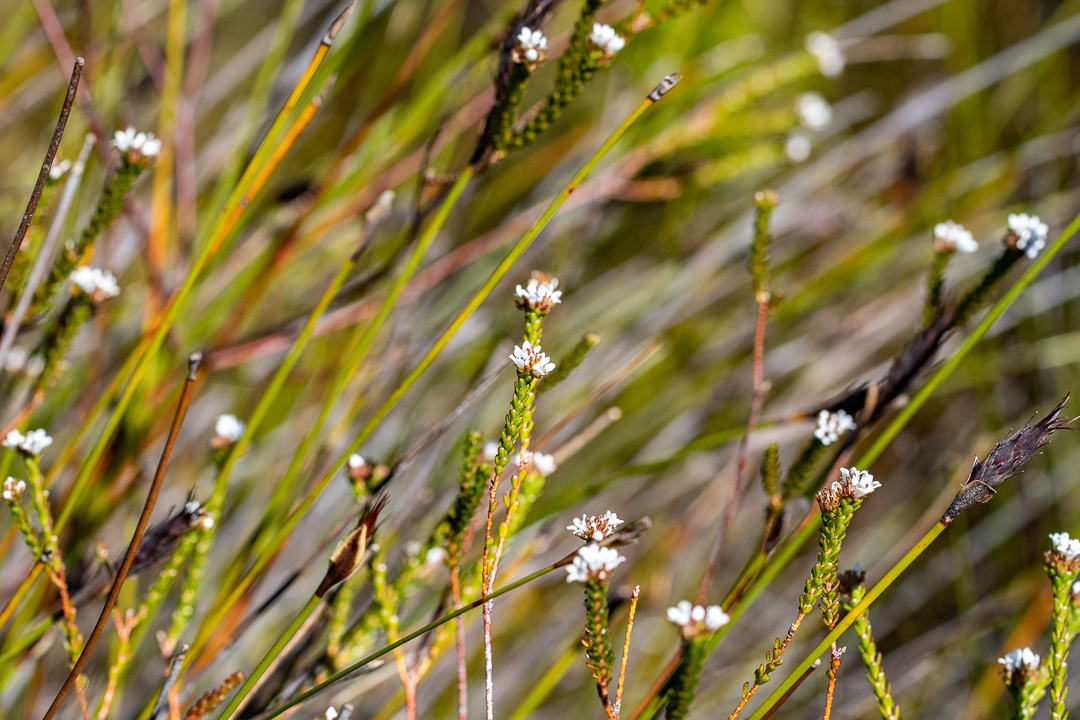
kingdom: Plantae
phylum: Tracheophyta
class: Magnoliopsida
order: Sapindales
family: Rutaceae
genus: Euchaetis
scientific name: Euchaetis glabra
